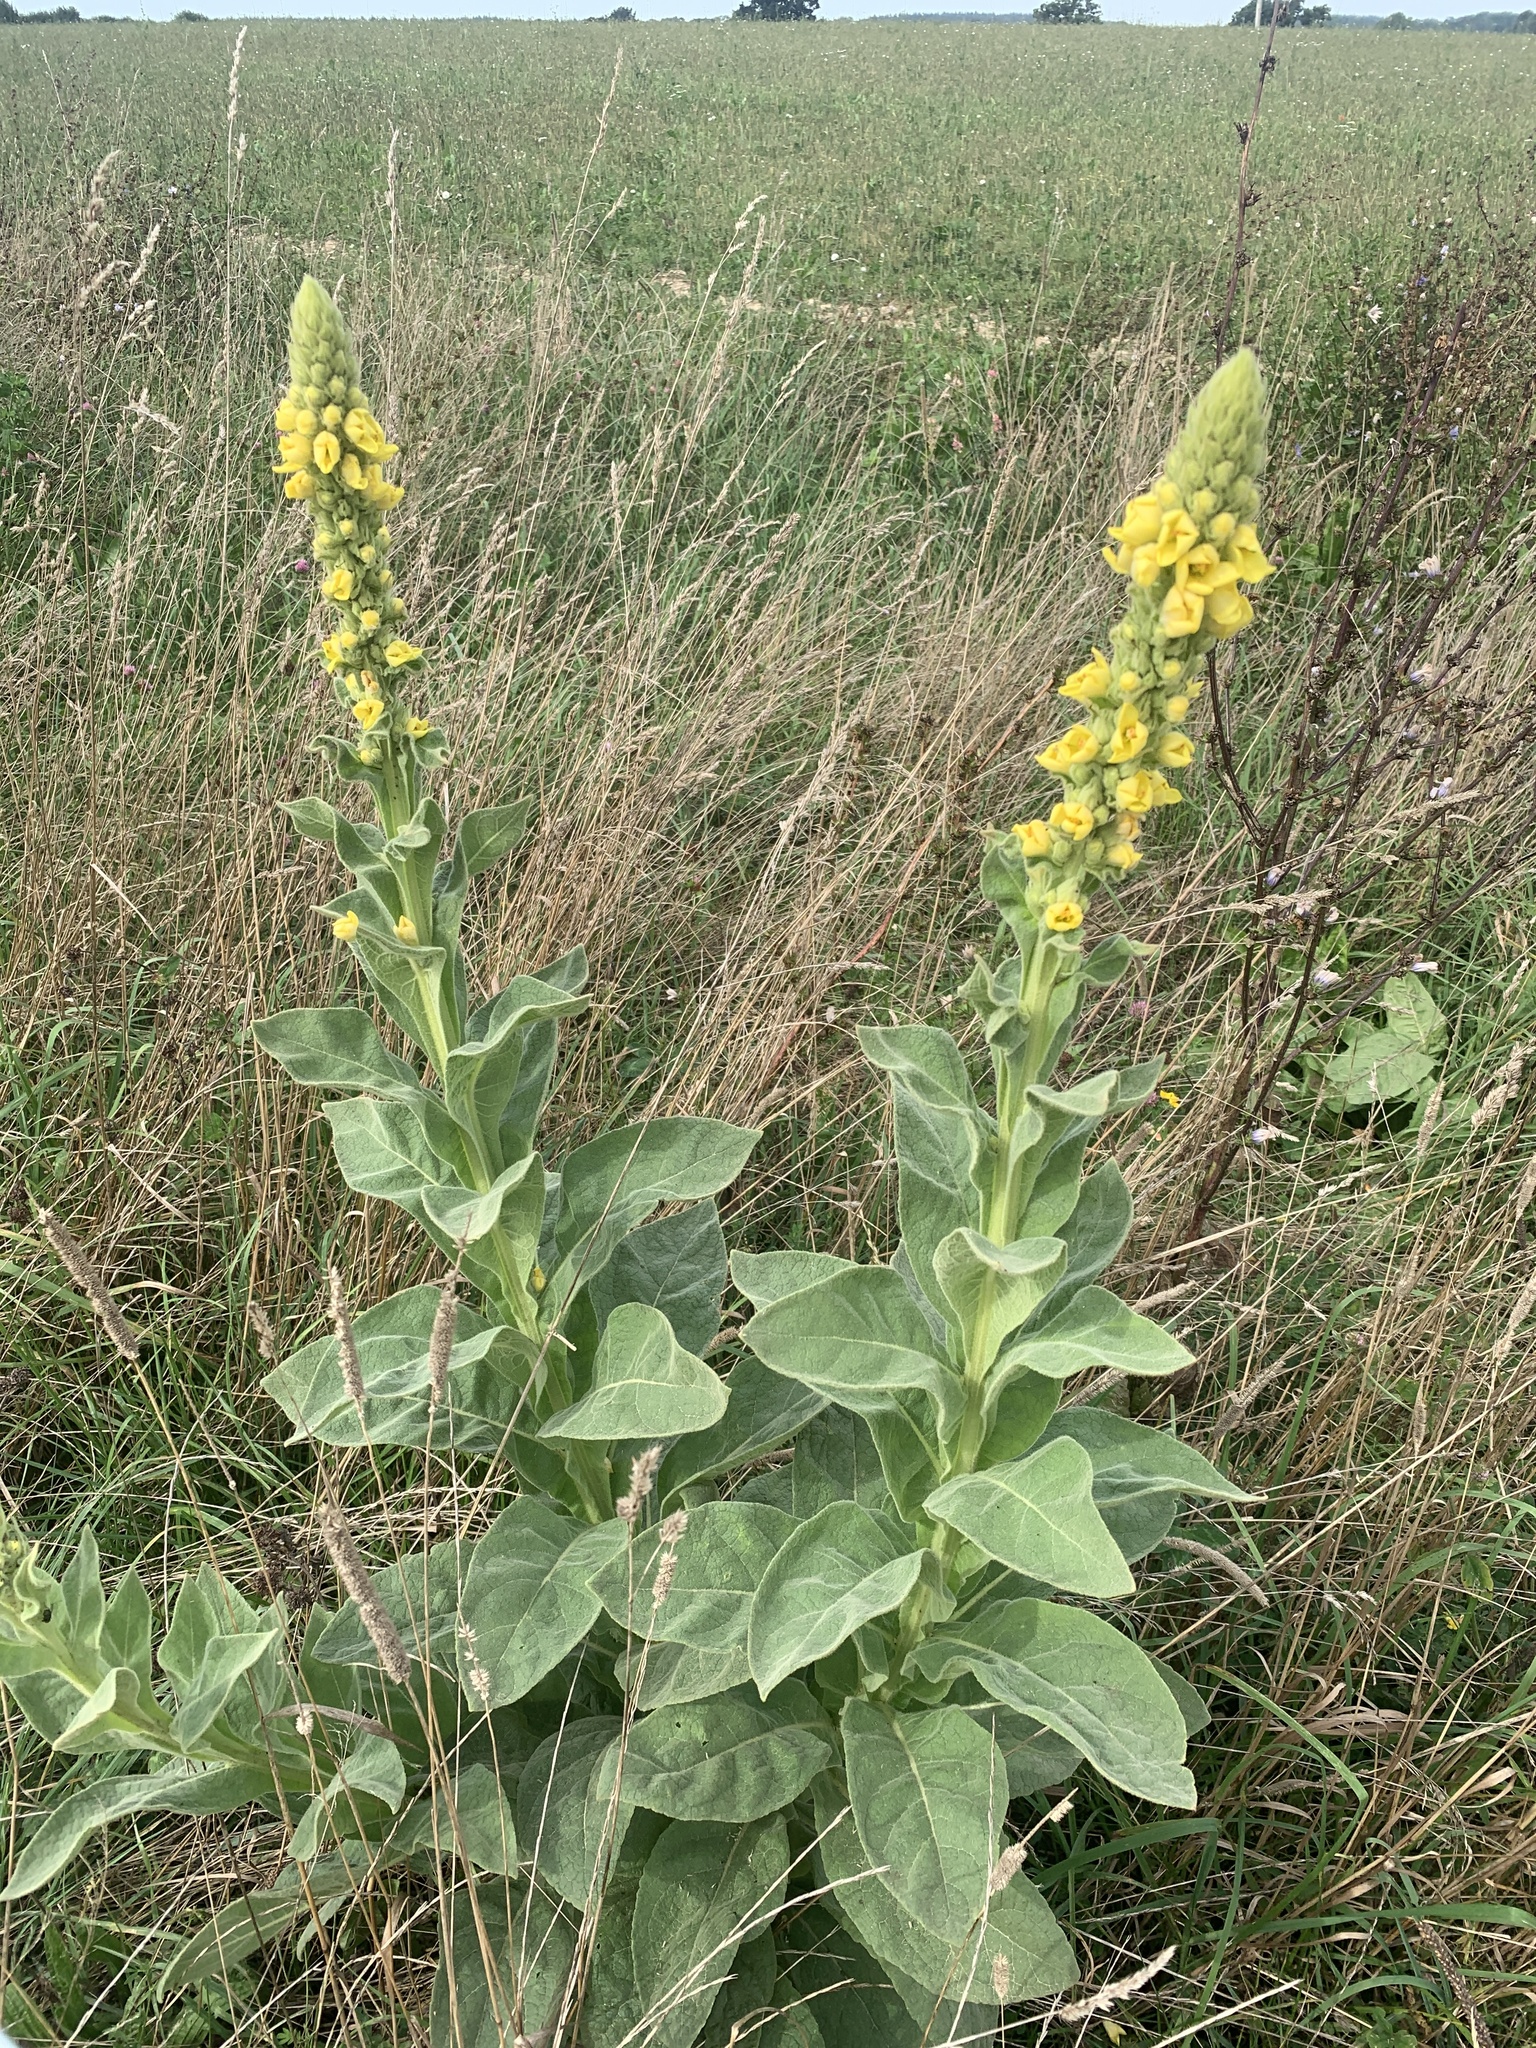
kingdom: Plantae
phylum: Tracheophyta
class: Magnoliopsida
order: Lamiales
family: Scrophulariaceae
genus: Verbascum
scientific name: Verbascum thapsus
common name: Common mullein
